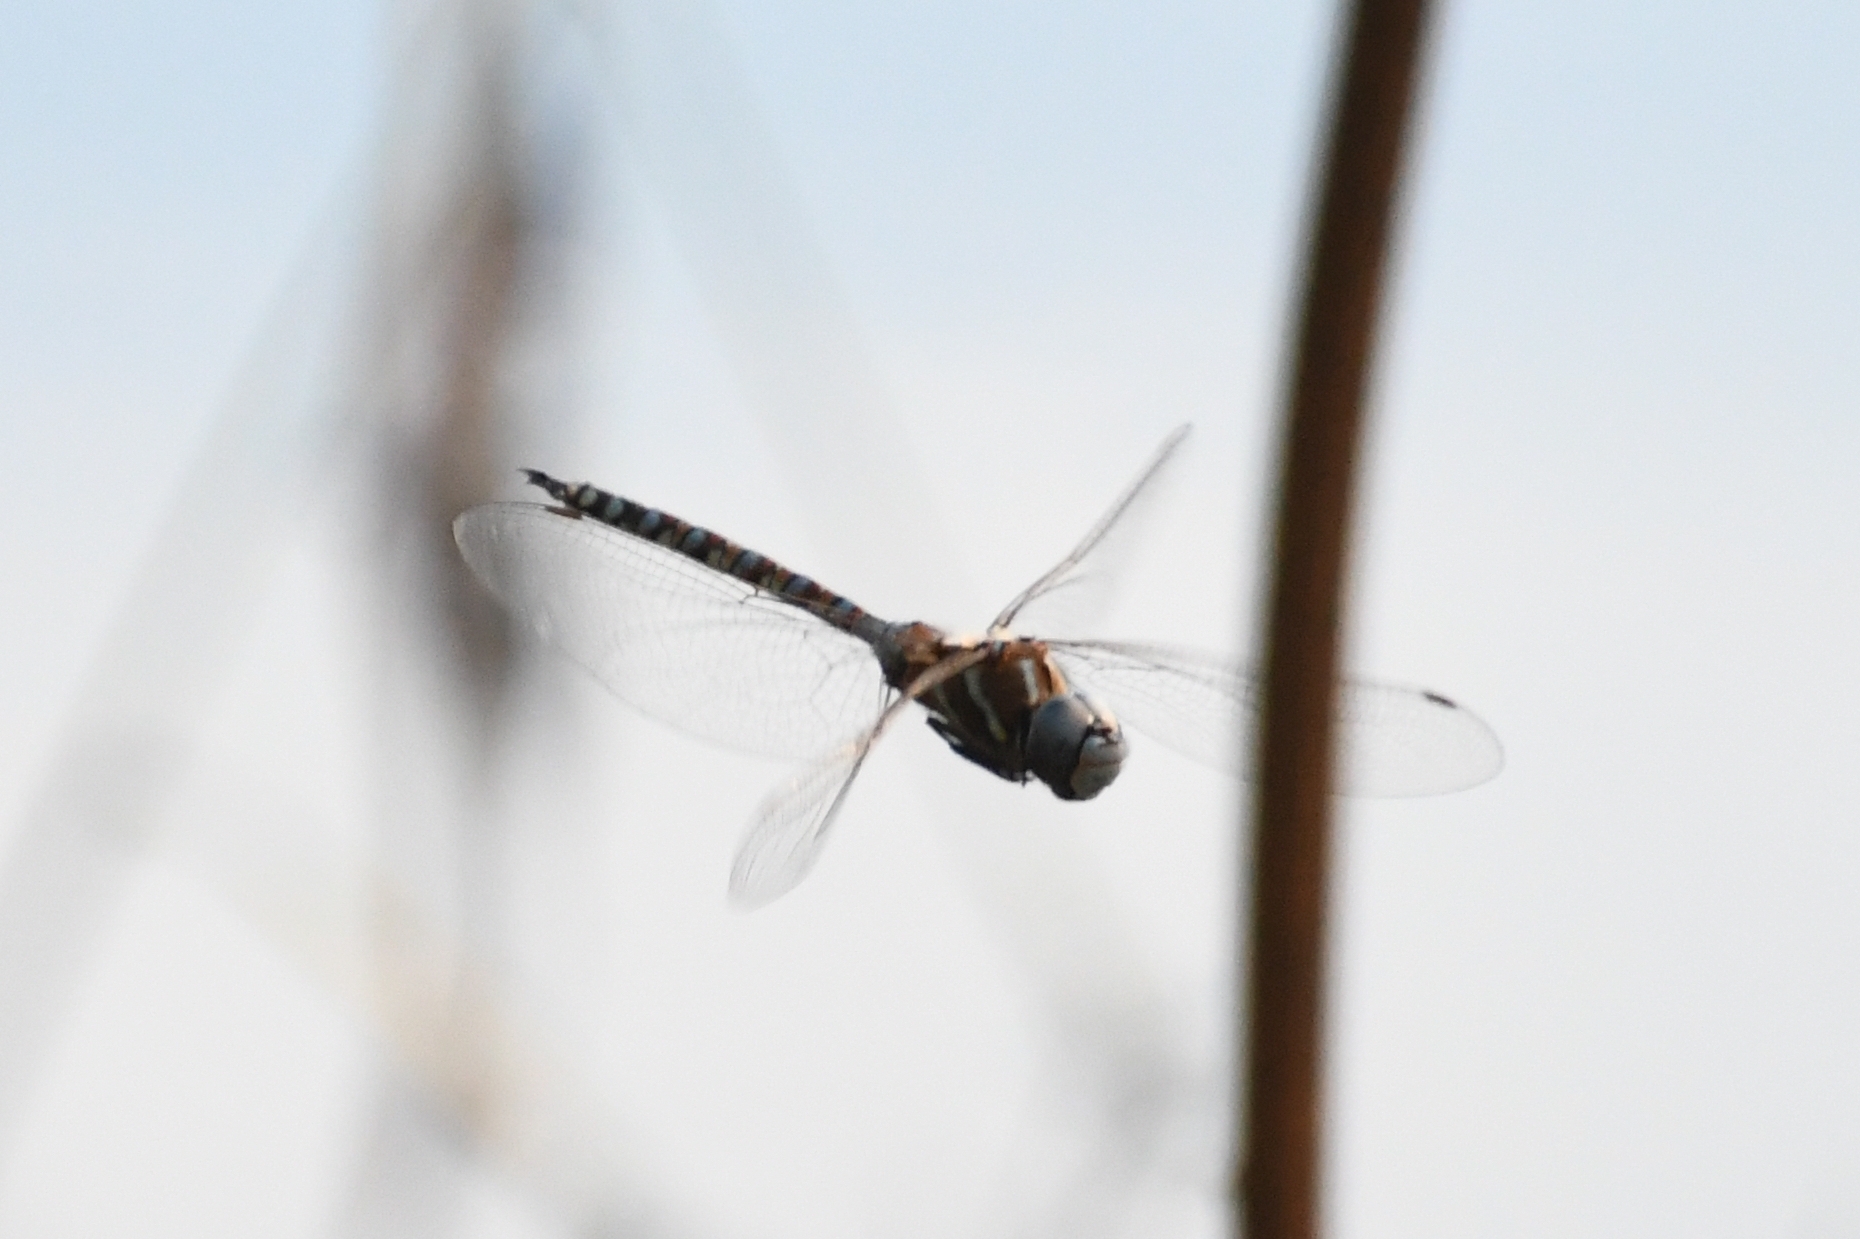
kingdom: Animalia
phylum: Arthropoda
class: Insecta
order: Odonata
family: Aeshnidae
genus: Rhionaeschna
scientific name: Rhionaeschna multicolor
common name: Blue-eyed darner
